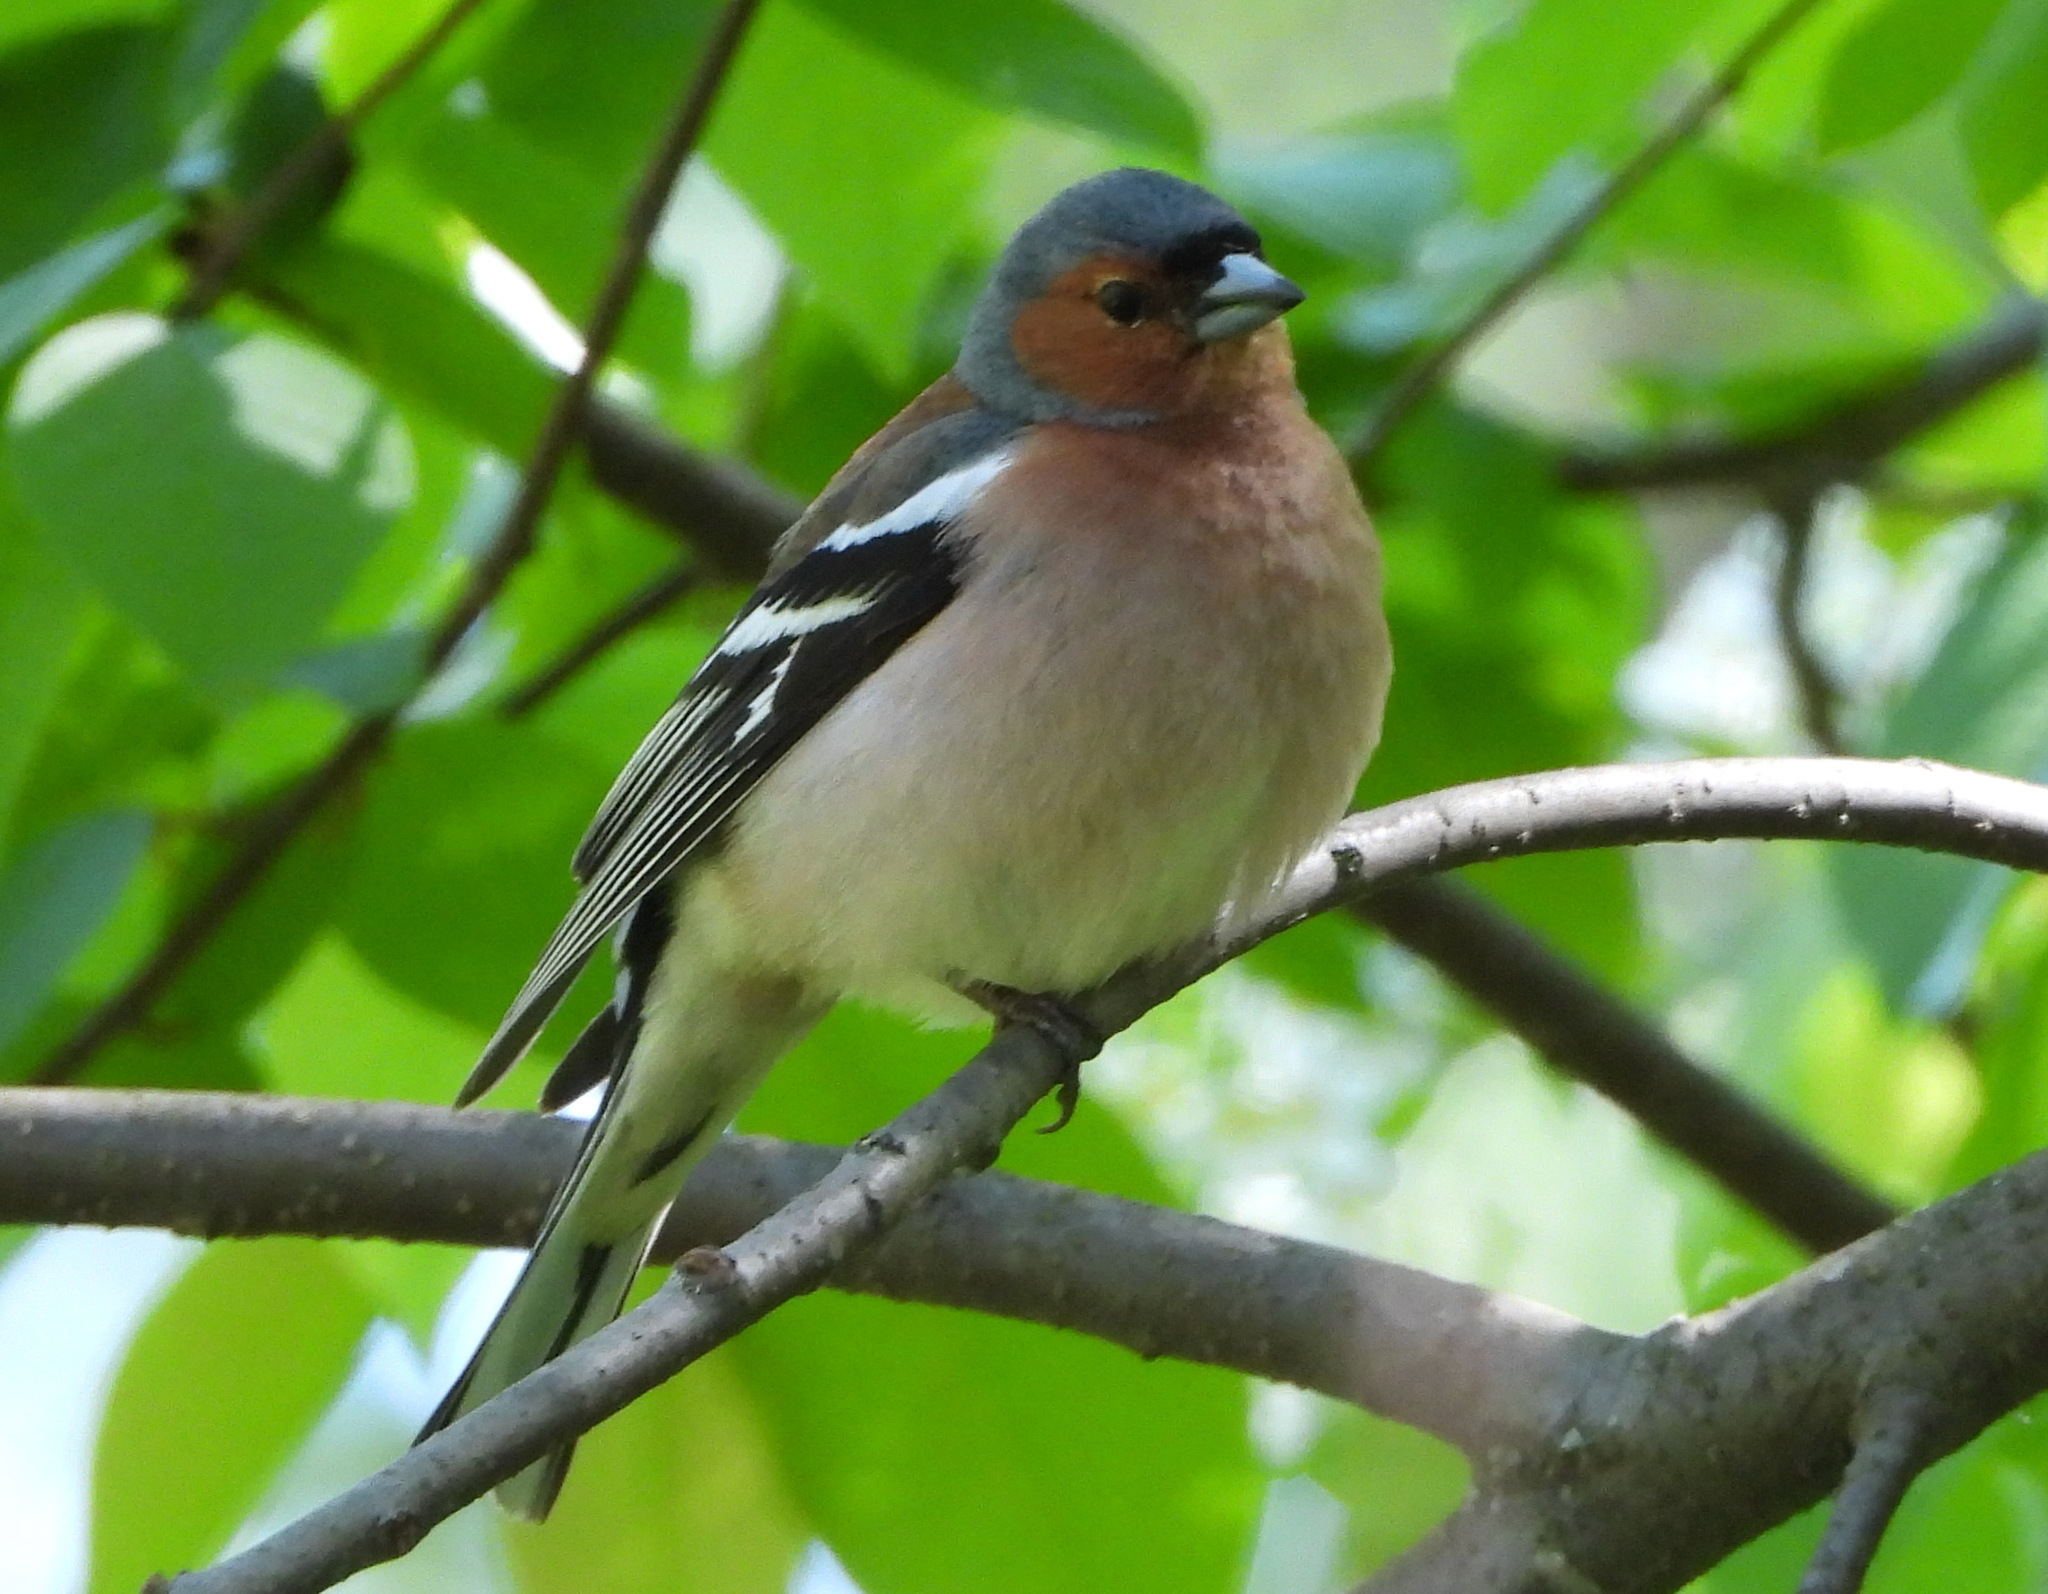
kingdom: Animalia
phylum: Chordata
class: Aves
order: Passeriformes
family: Fringillidae
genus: Fringilla
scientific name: Fringilla coelebs
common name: Common chaffinch
